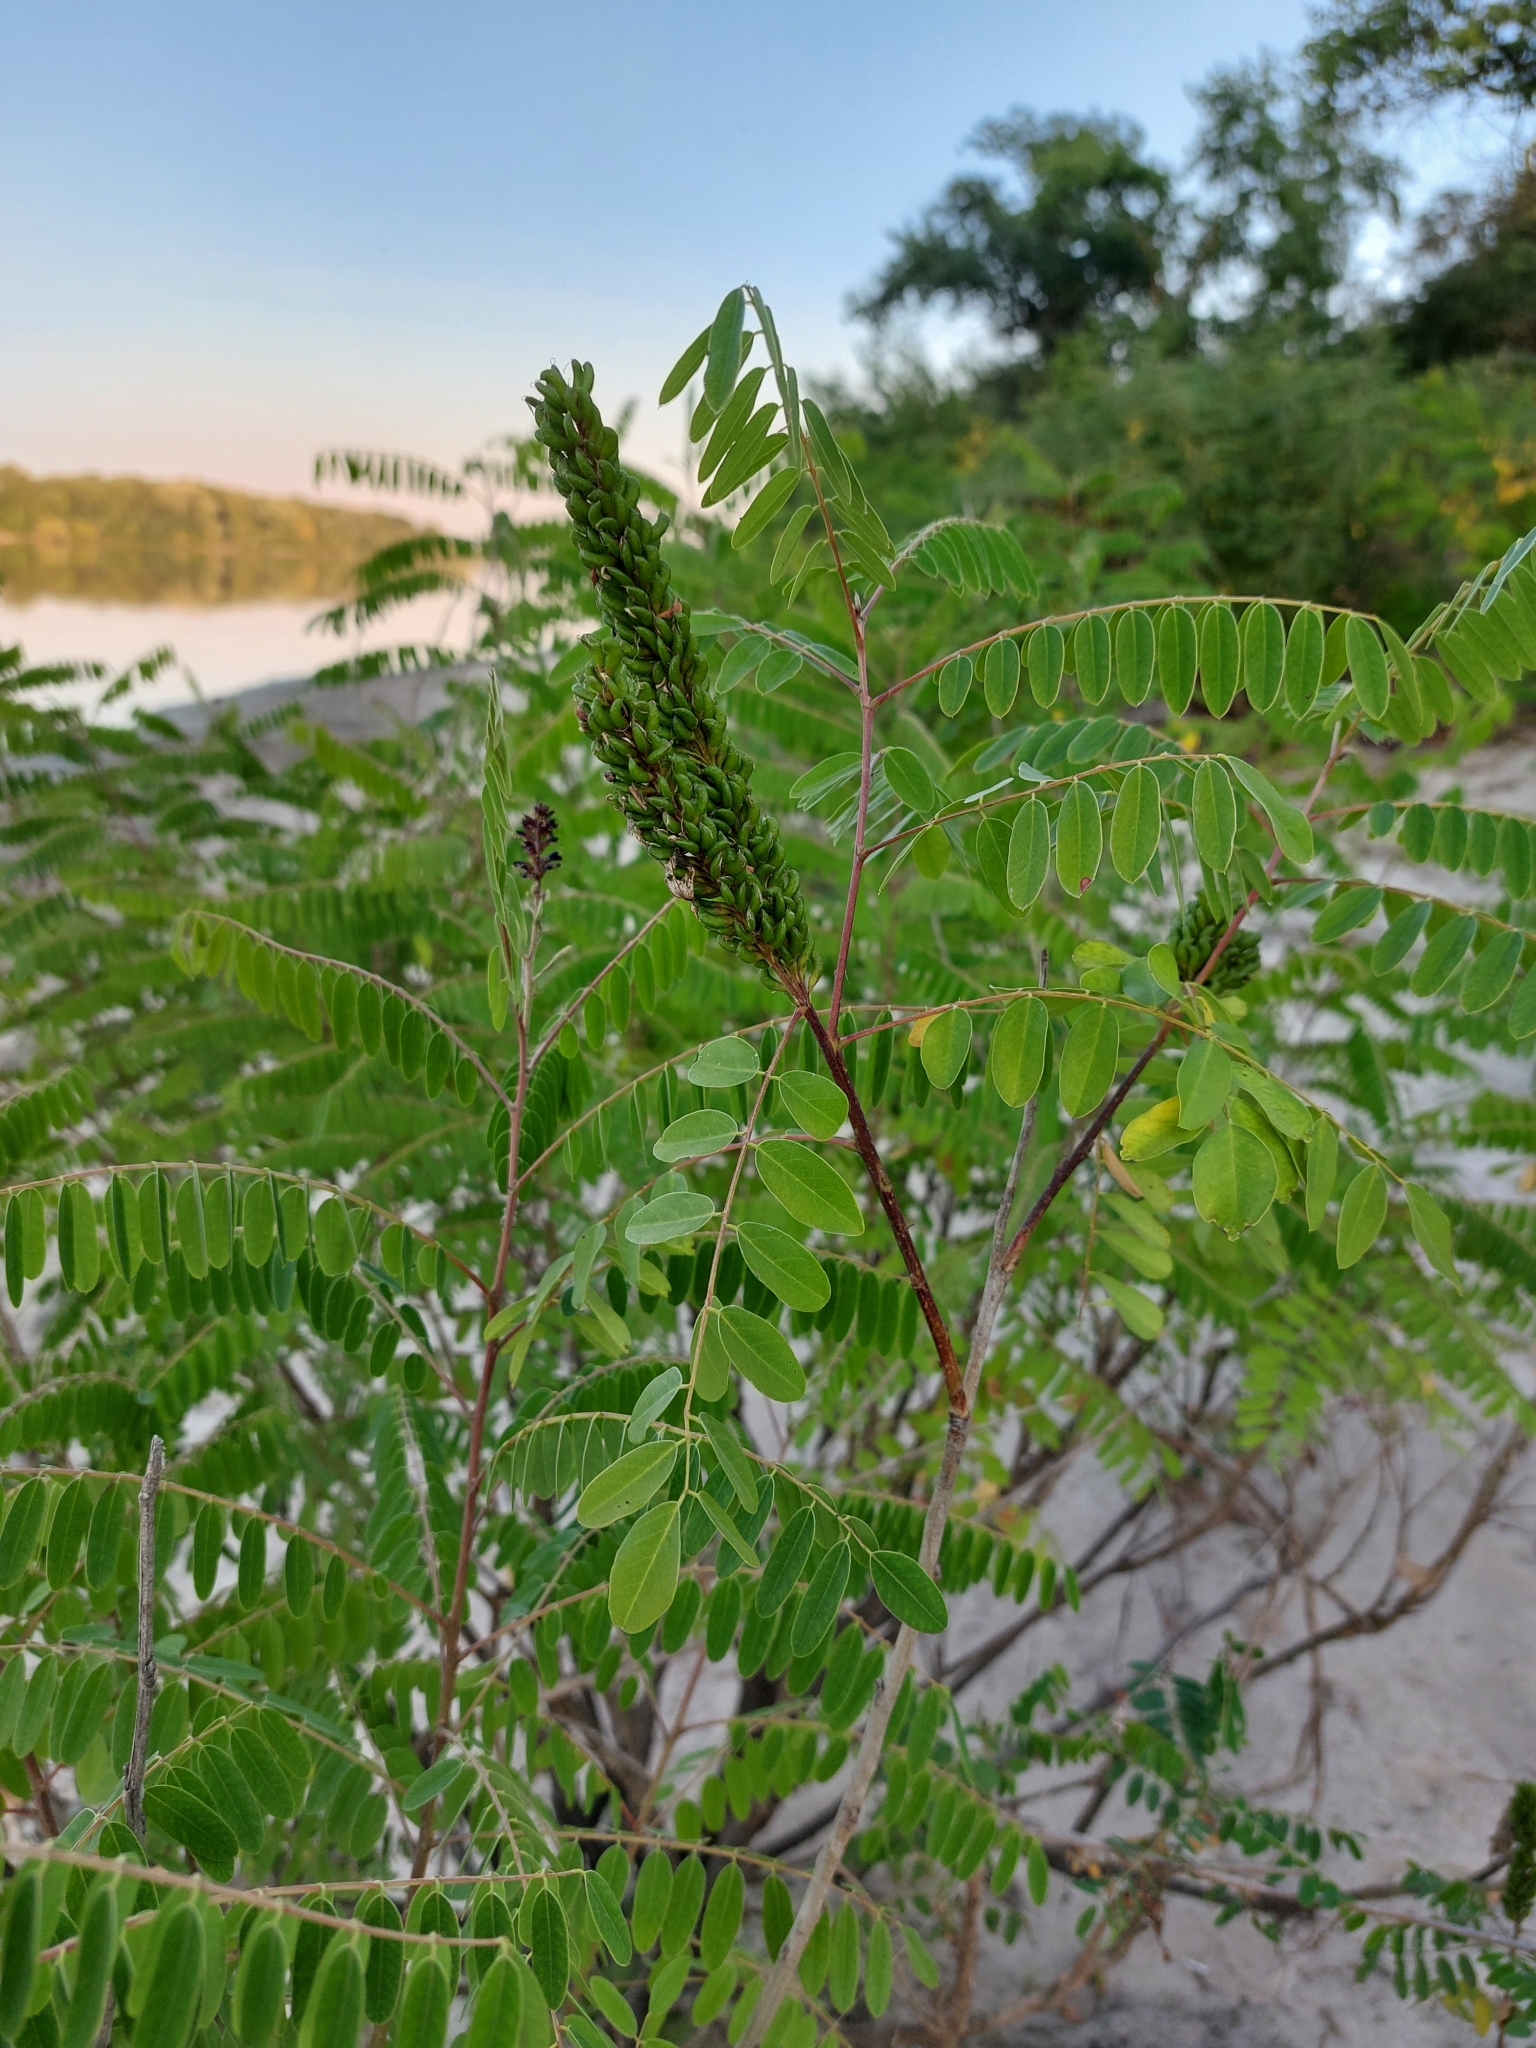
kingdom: Plantae
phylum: Tracheophyta
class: Magnoliopsida
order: Fabales
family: Fabaceae
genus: Amorpha
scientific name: Amorpha fruticosa
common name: False indigo
